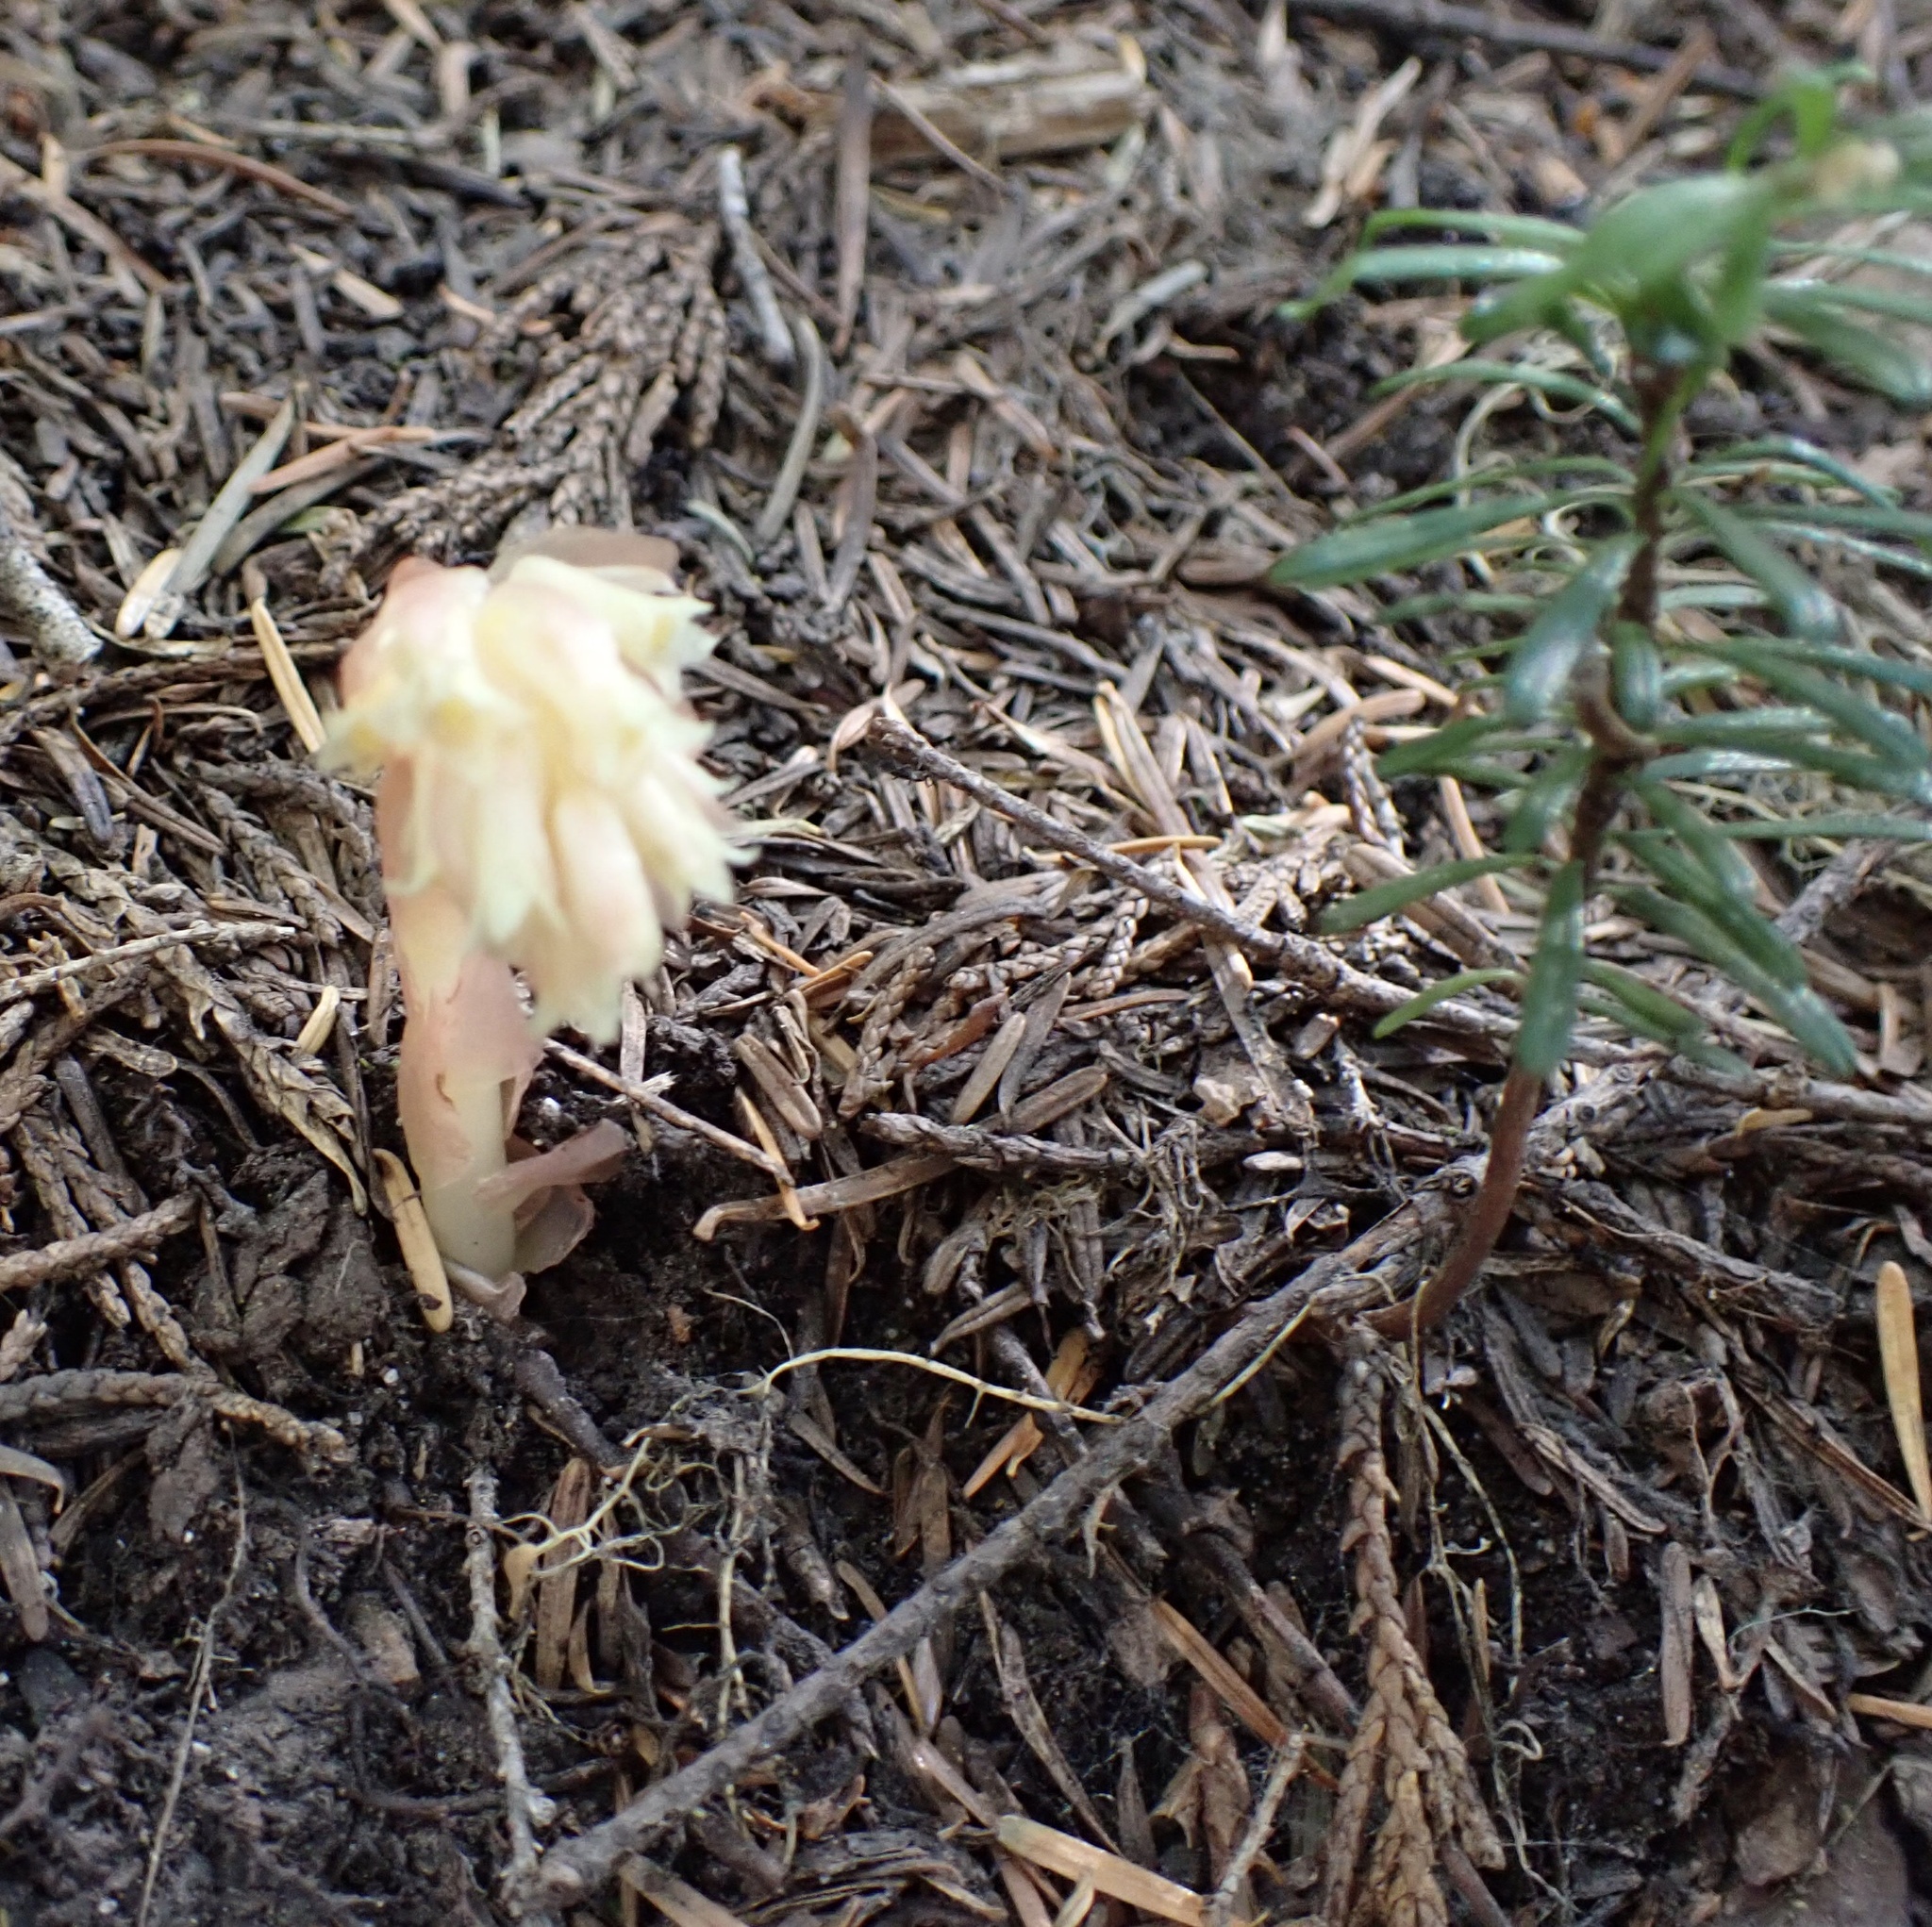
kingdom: Plantae
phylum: Tracheophyta
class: Magnoliopsida
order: Ericales
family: Ericaceae
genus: Hypopitys
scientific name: Hypopitys monotropa
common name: Yellow bird's-nest
